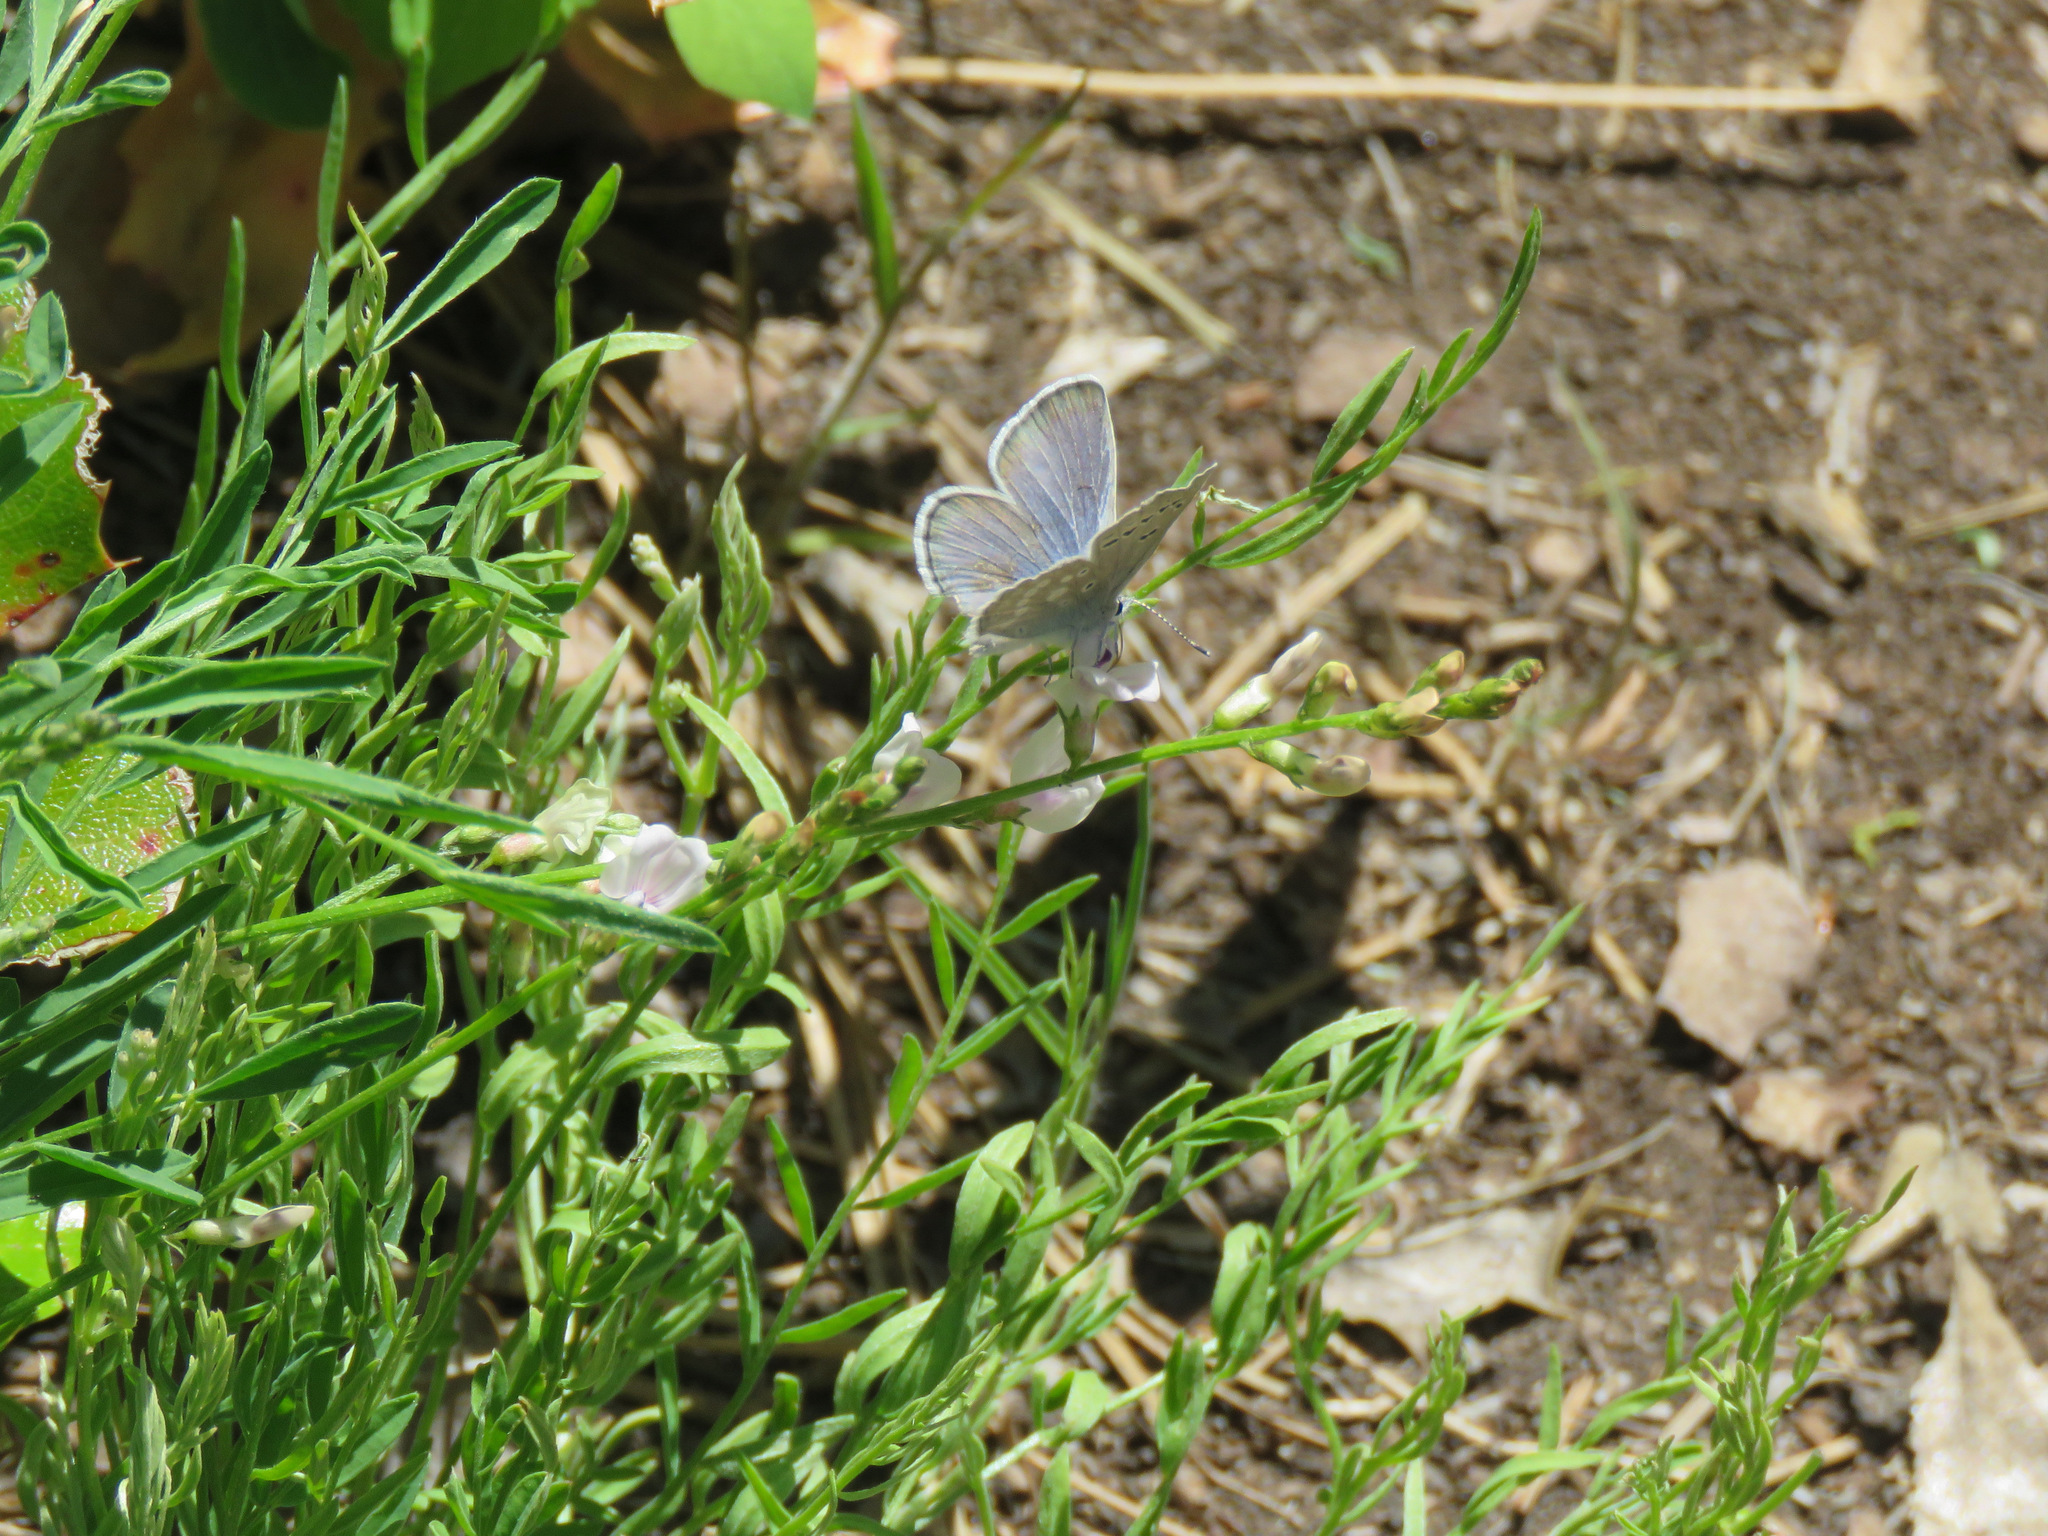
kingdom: Animalia
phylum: Arthropoda
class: Insecta
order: Lepidoptera
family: Lycaenidae
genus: Icaricia
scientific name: Icaricia icarioides
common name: Boisduval's blue
